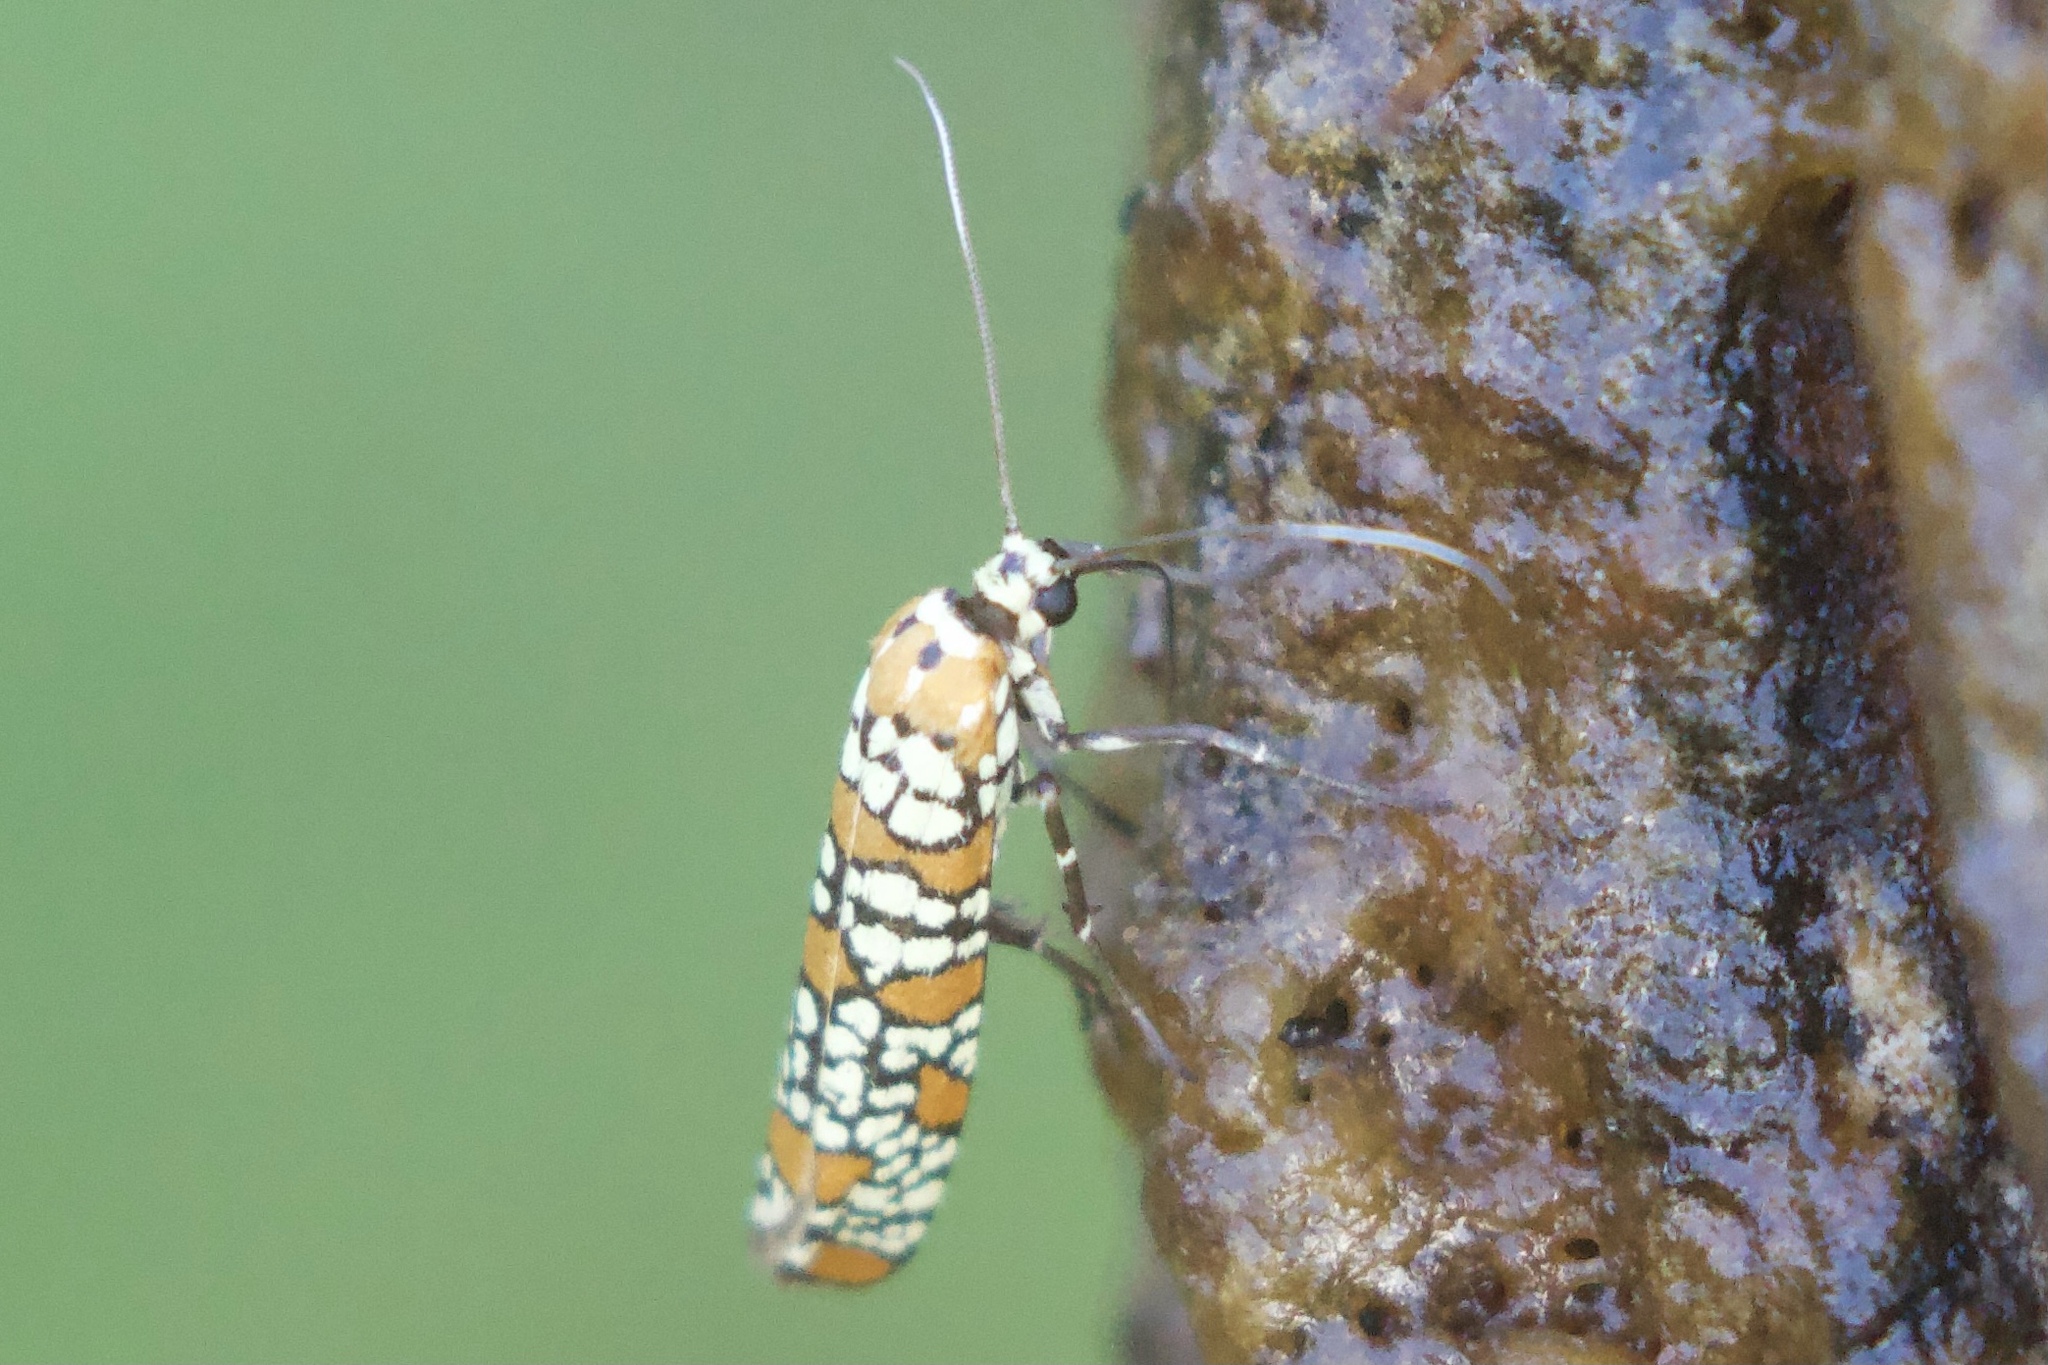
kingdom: Animalia
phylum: Arthropoda
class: Insecta
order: Lepidoptera
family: Attevidae
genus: Atteva
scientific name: Atteva punctella
